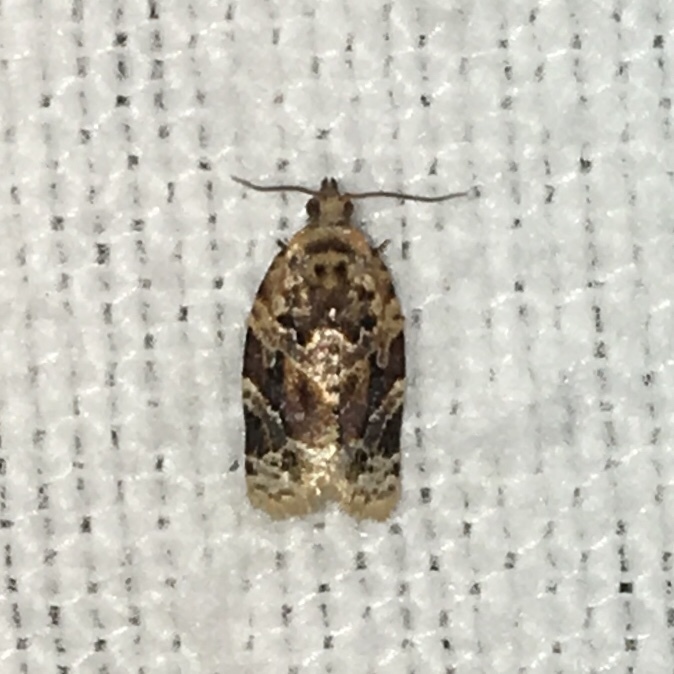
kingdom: Animalia
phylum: Arthropoda
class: Insecta
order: Lepidoptera
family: Tortricidae
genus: Argyrotaenia
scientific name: Argyrotaenia velutinana
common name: Red-banded leafroller moth
